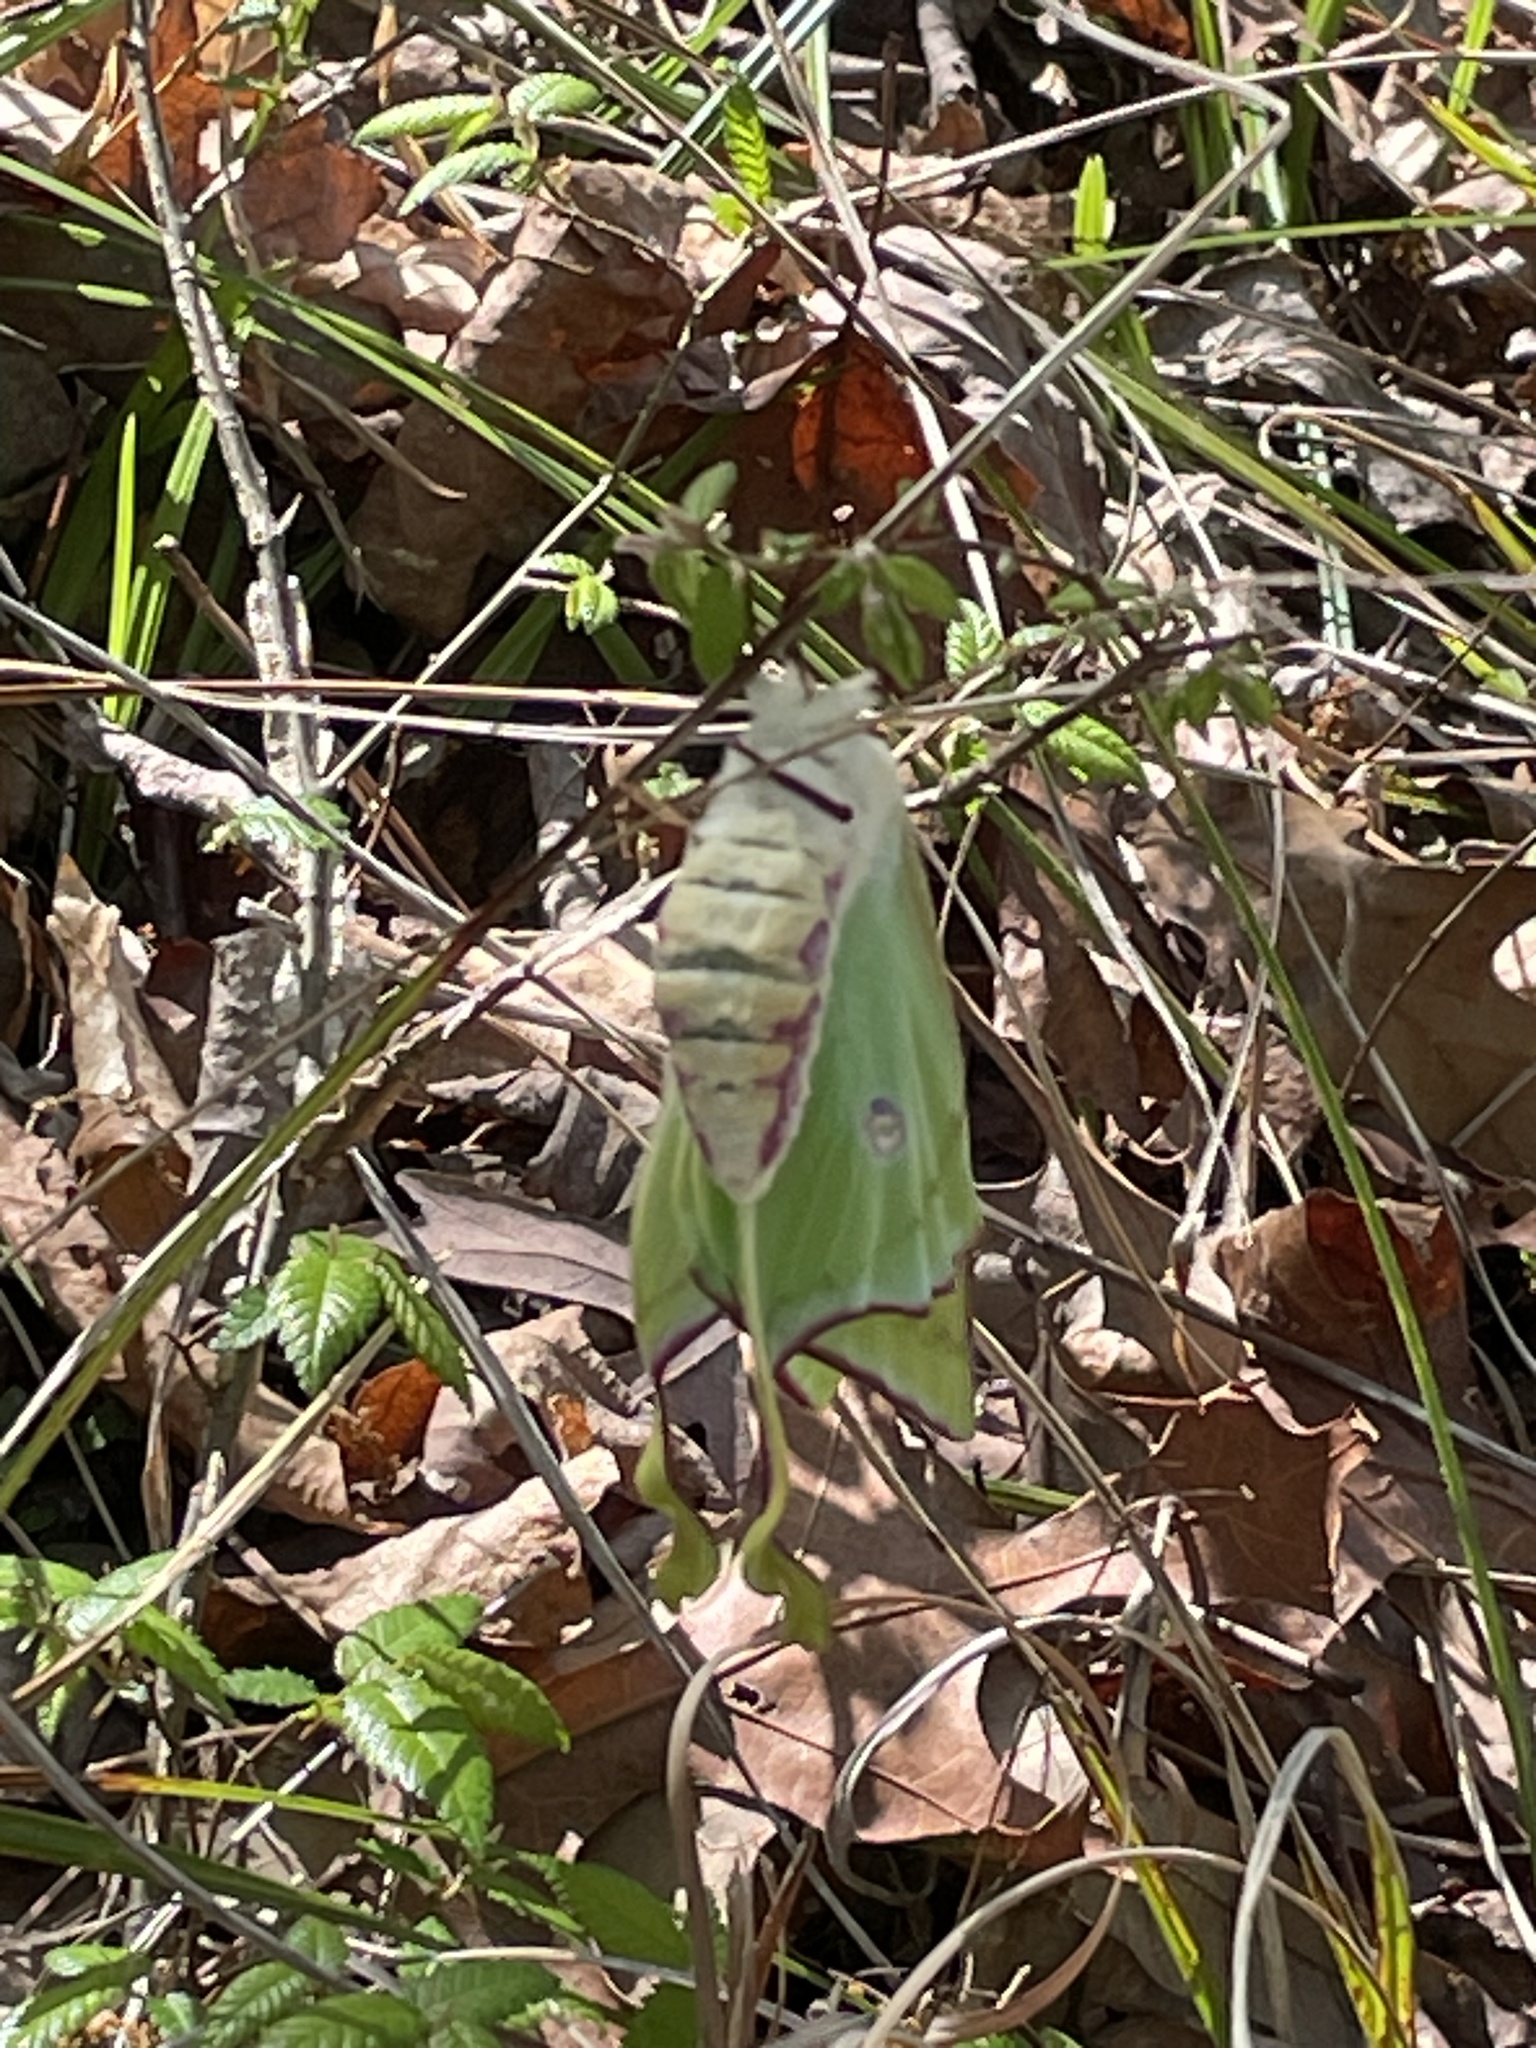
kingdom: Animalia
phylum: Arthropoda
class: Insecta
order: Lepidoptera
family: Saturniidae
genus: Actias
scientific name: Actias luna
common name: Luna moth
